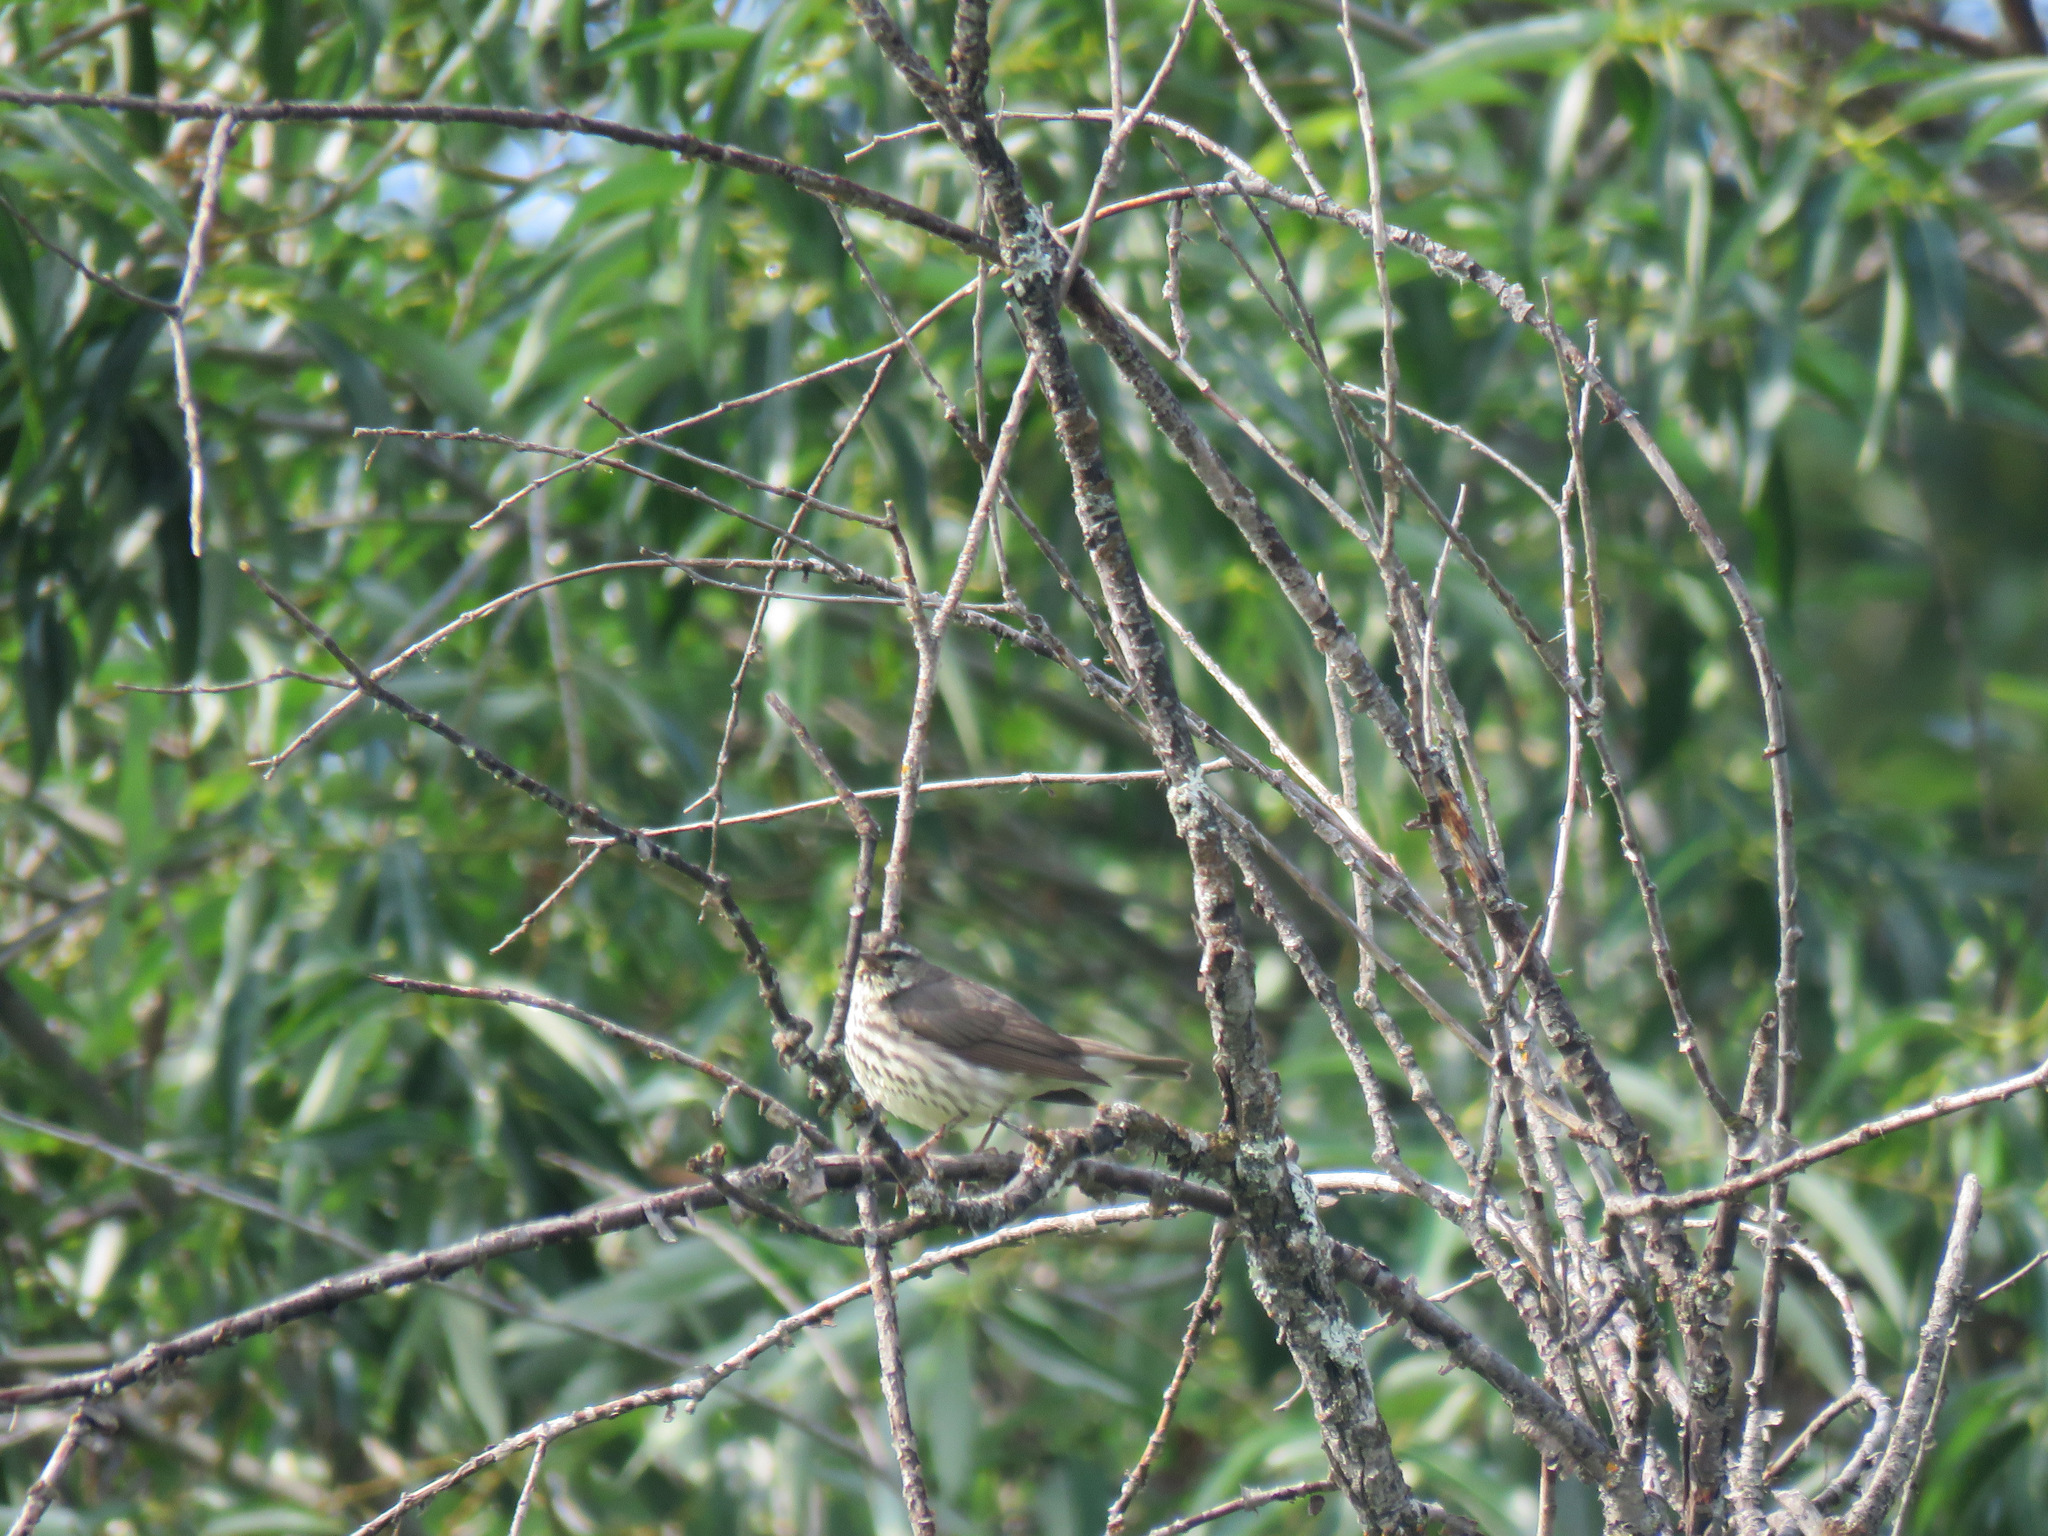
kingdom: Animalia
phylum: Chordata
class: Aves
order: Passeriformes
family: Parulidae
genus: Parkesia
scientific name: Parkesia noveboracensis
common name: Northern waterthrush
